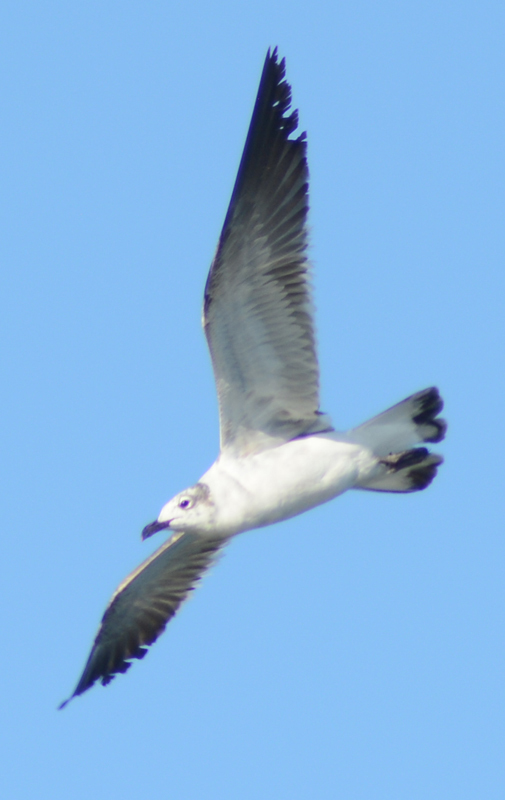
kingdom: Animalia
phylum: Chordata
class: Aves
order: Charadriiformes
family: Laridae
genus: Leucophaeus
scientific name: Leucophaeus atricilla
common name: Laughing gull
